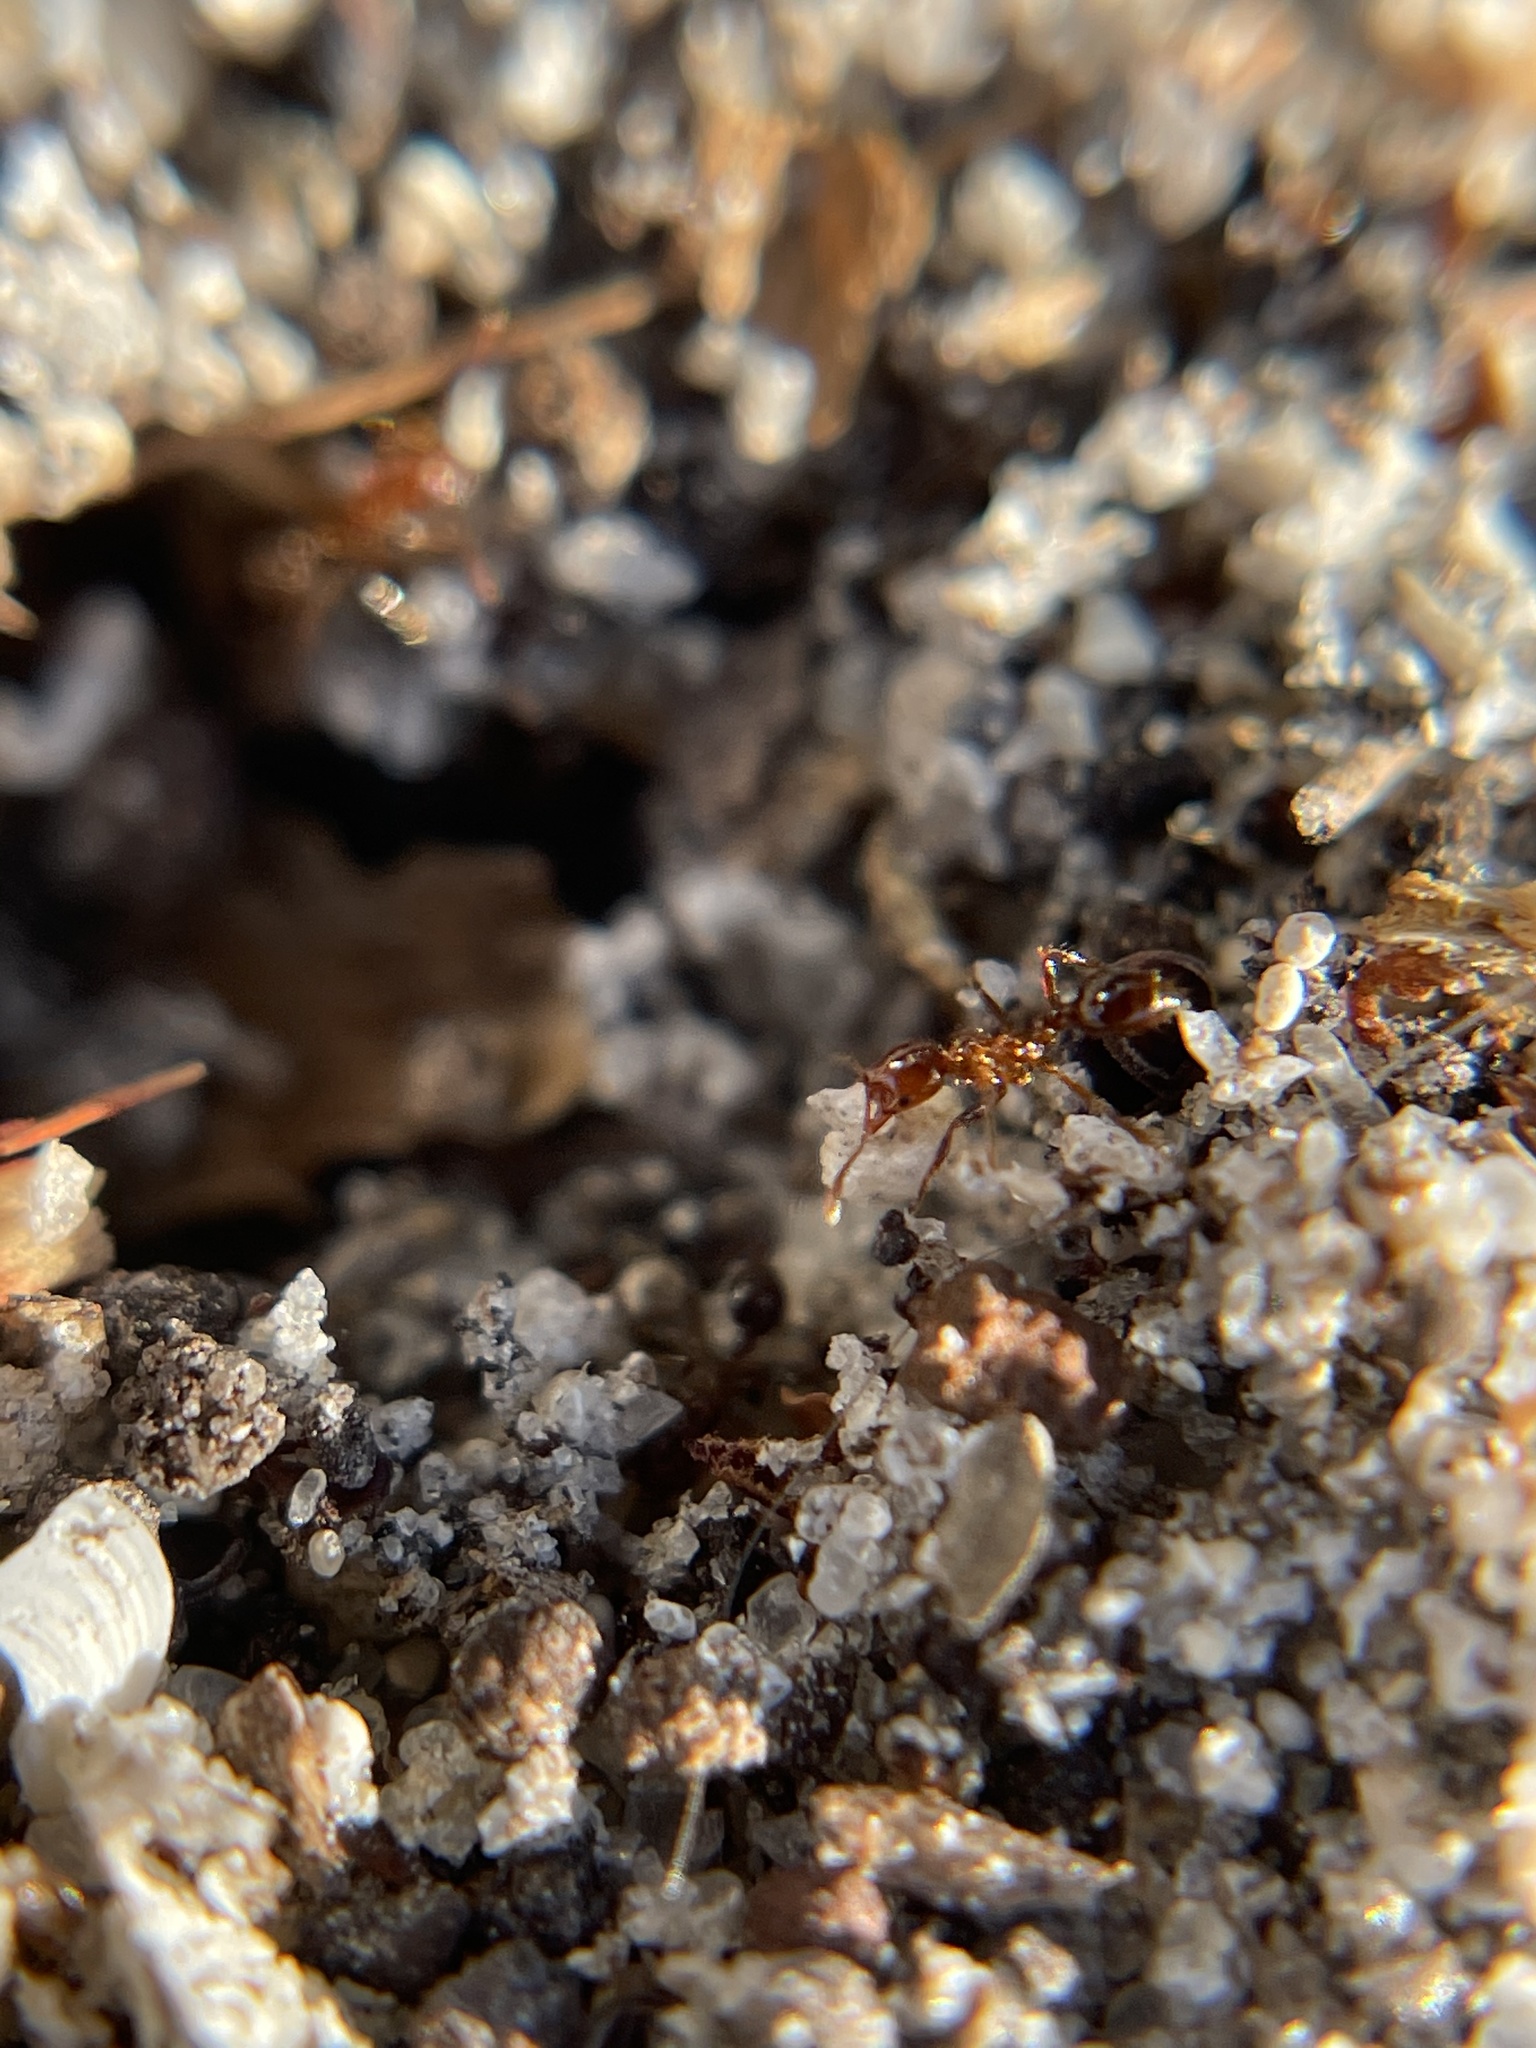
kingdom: Animalia
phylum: Arthropoda
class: Insecta
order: Hymenoptera
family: Formicidae
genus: Solenopsis
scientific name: Solenopsis invicta
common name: Red imported fire ant
